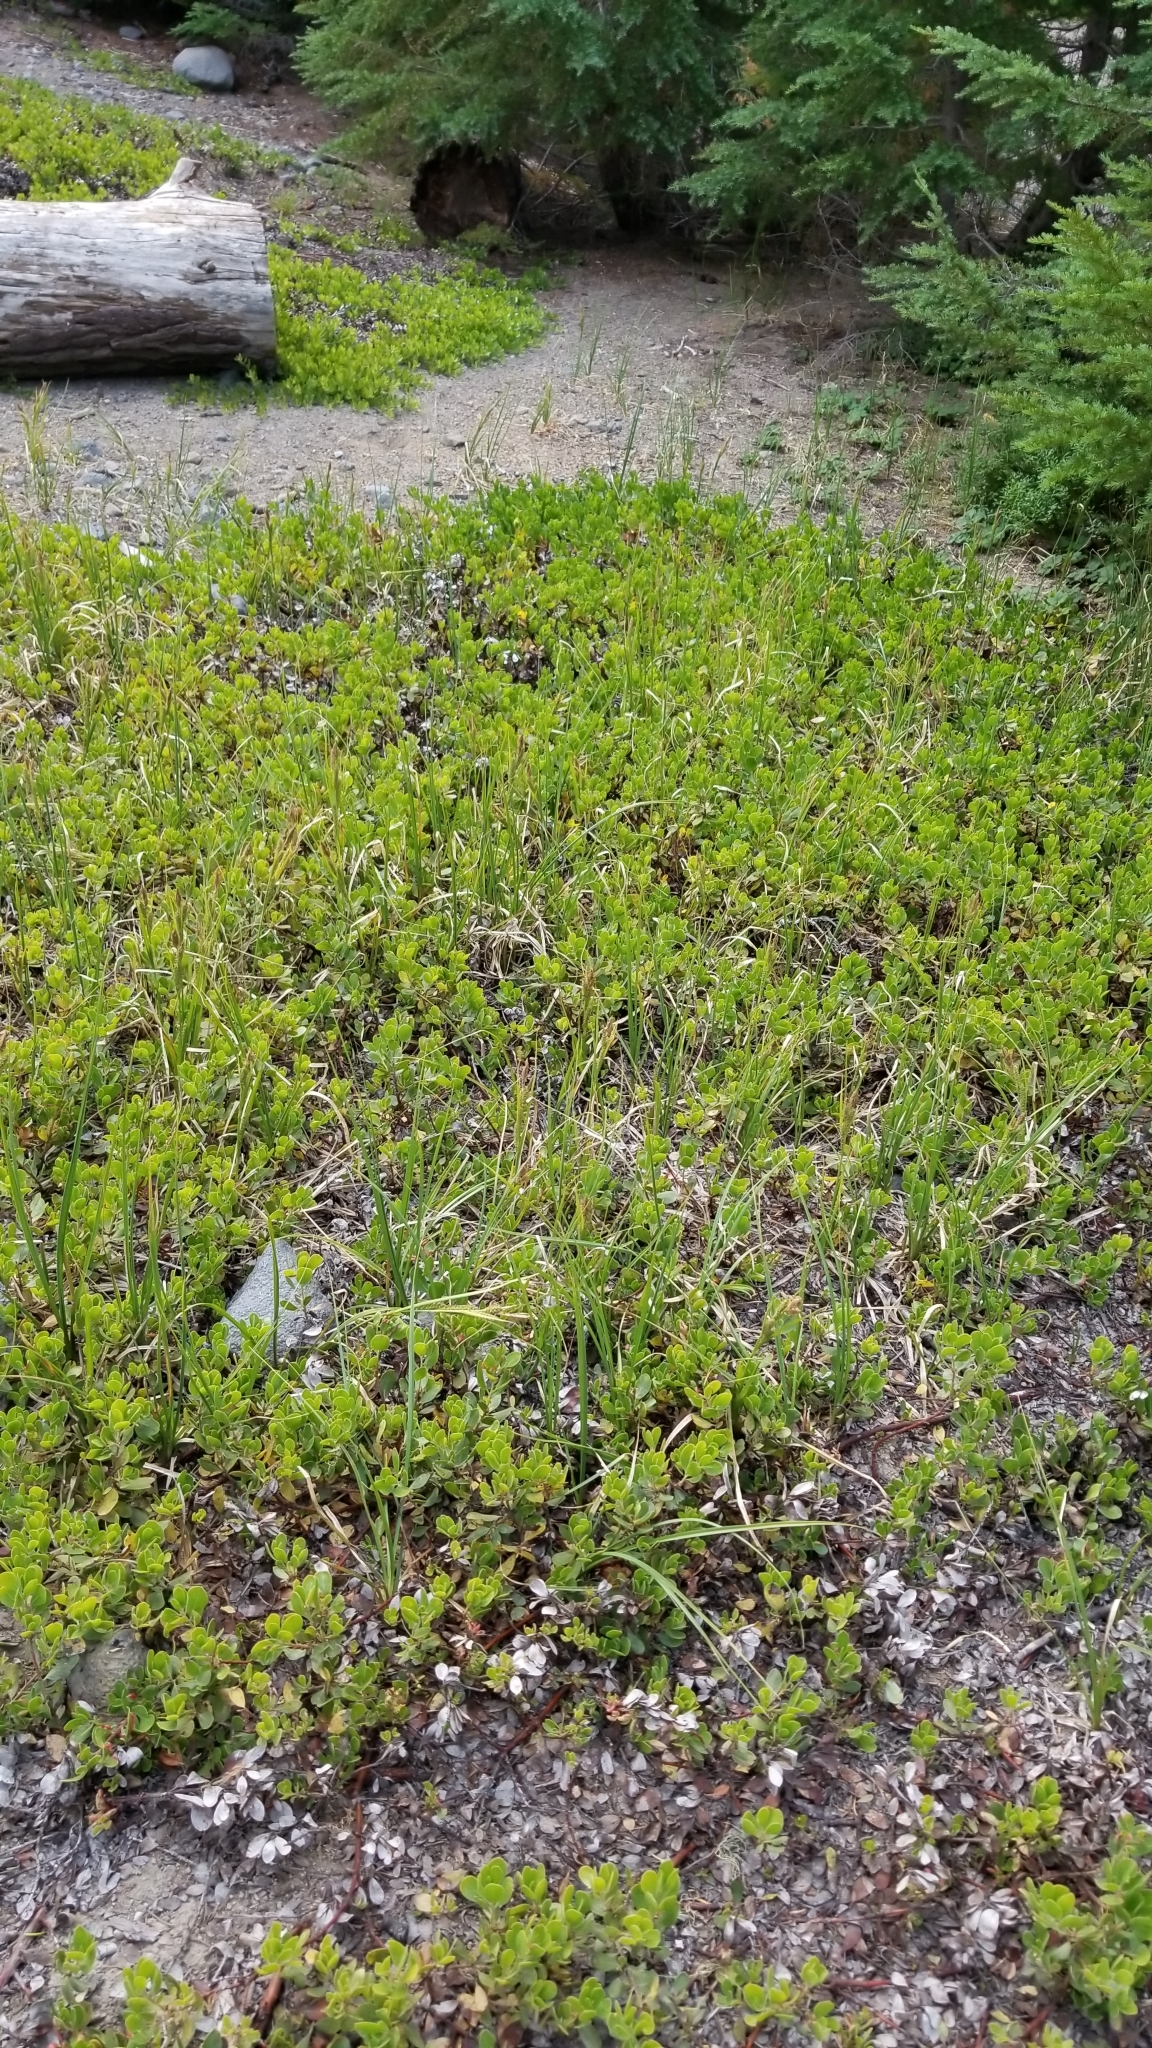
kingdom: Plantae
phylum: Tracheophyta
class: Magnoliopsida
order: Ericales
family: Ericaceae
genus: Arctostaphylos
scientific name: Arctostaphylos nevadensis
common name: Pinemat manzanita
